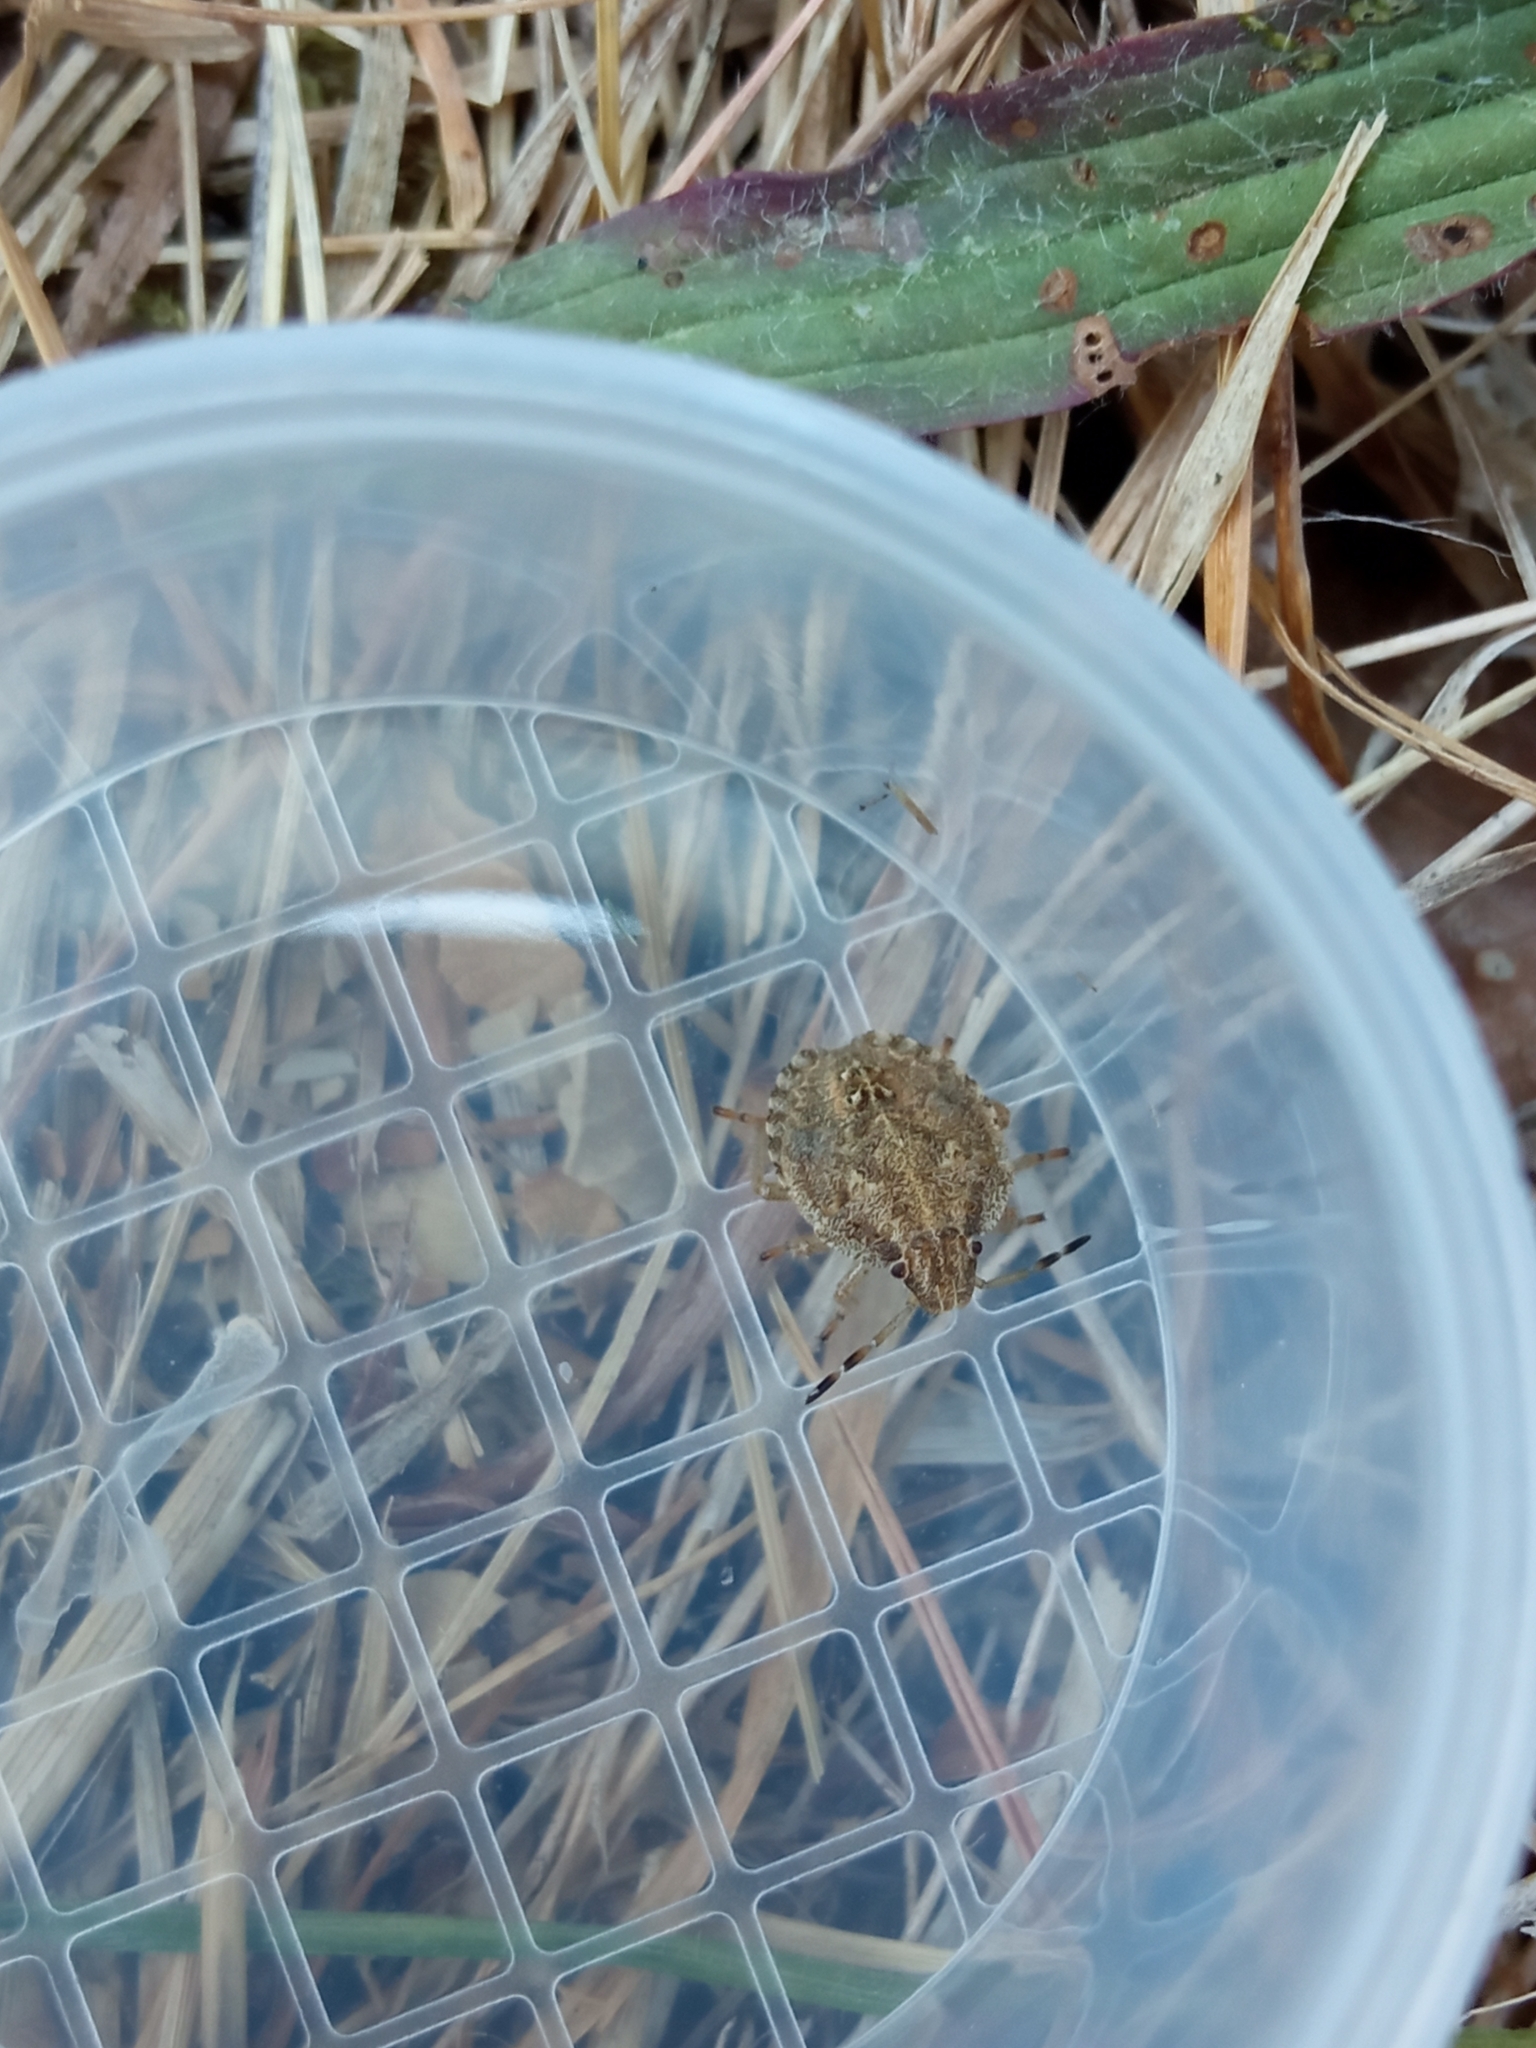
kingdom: Animalia
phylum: Arthropoda
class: Insecta
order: Hemiptera
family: Pentatomidae
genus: Dolycoris
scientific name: Dolycoris baccarum
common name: Sloe bug
